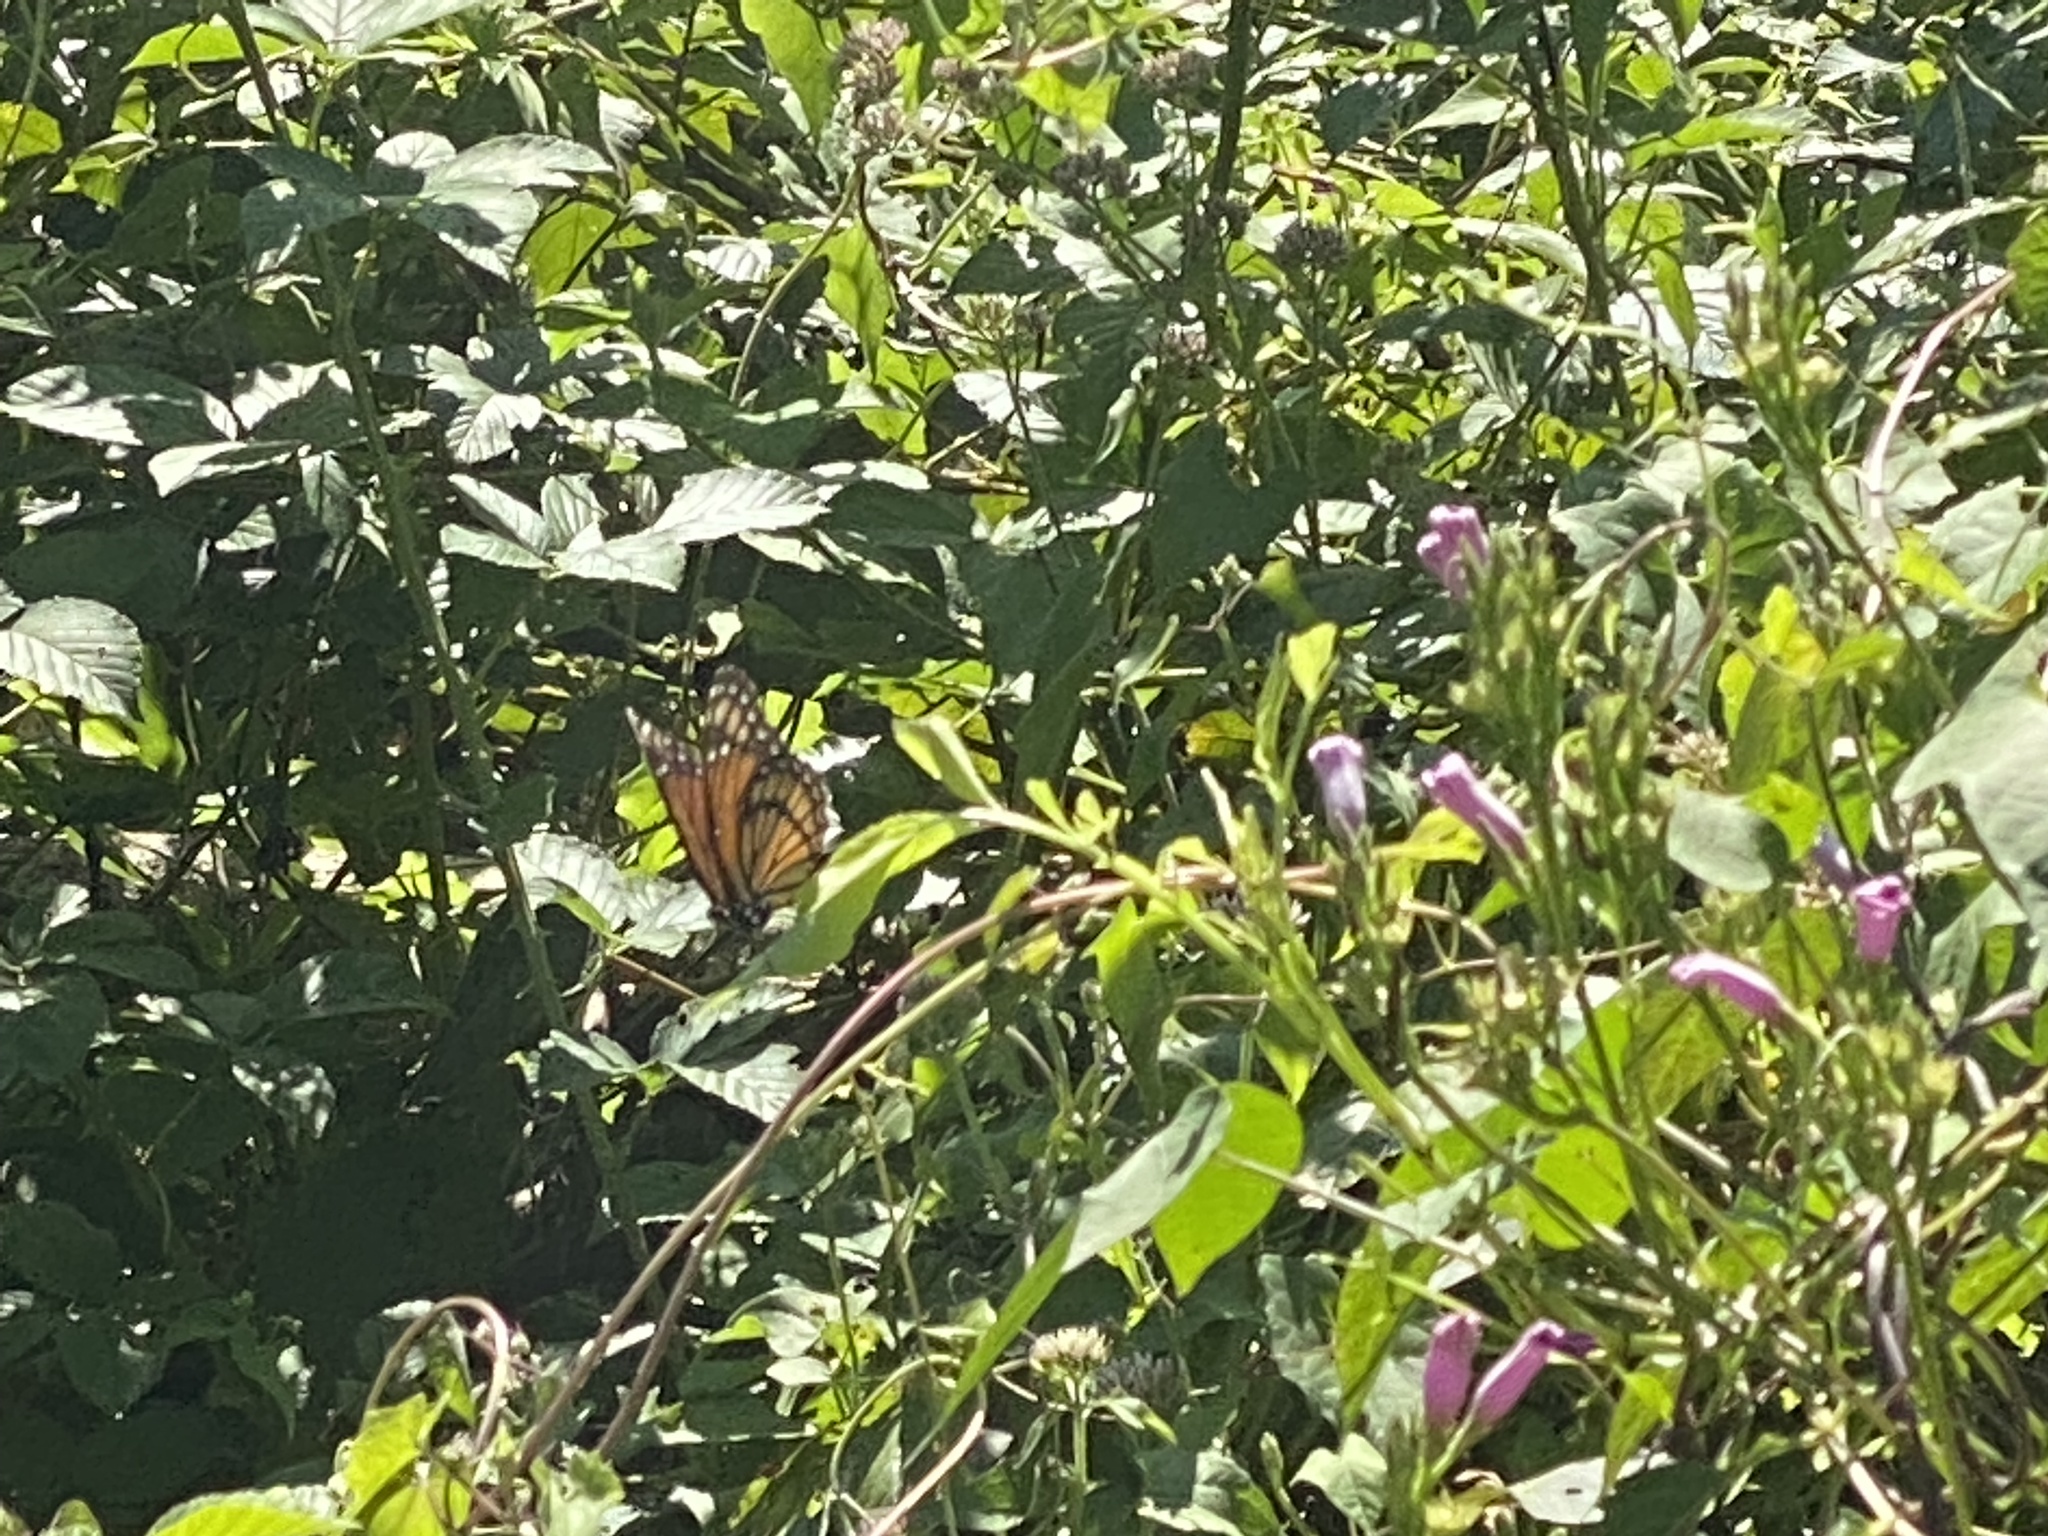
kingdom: Animalia
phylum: Arthropoda
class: Insecta
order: Lepidoptera
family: Nymphalidae
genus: Limenitis
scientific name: Limenitis archippus
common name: Viceroy
